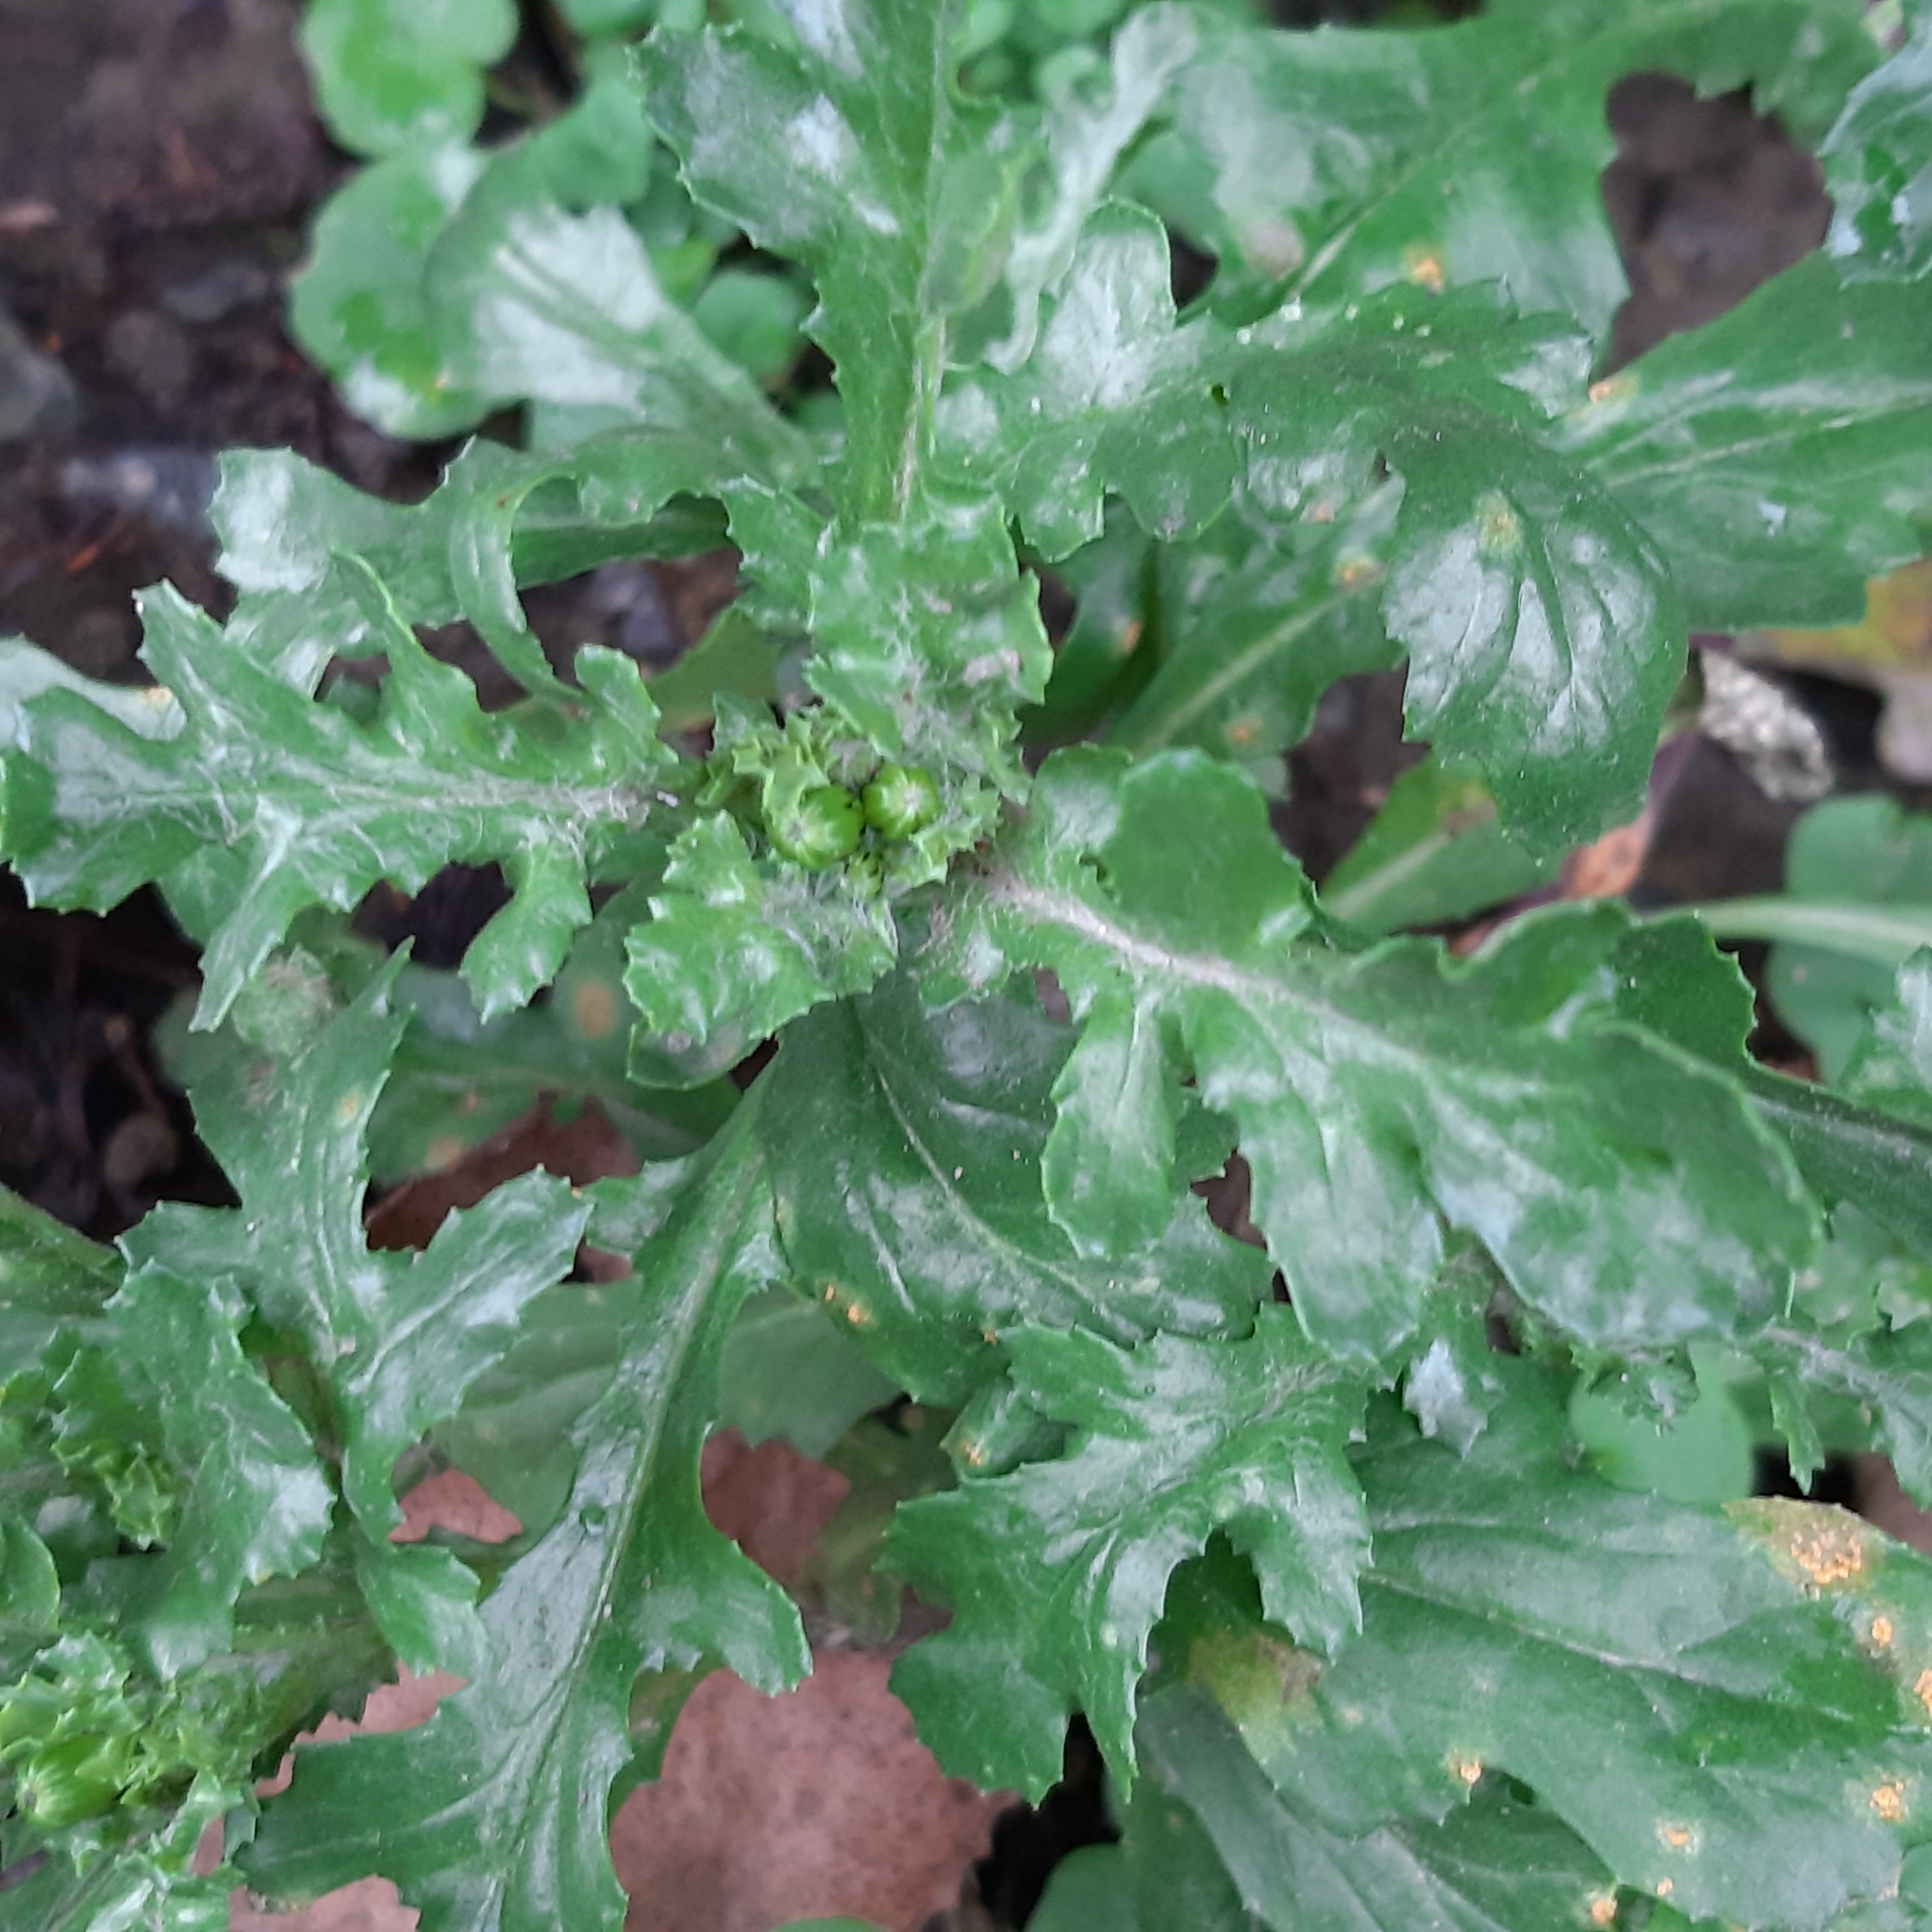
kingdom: Plantae
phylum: Tracheophyta
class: Magnoliopsida
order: Asterales
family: Asteraceae
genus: Senecio
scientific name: Senecio vulgaris
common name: Old-man-in-the-spring
